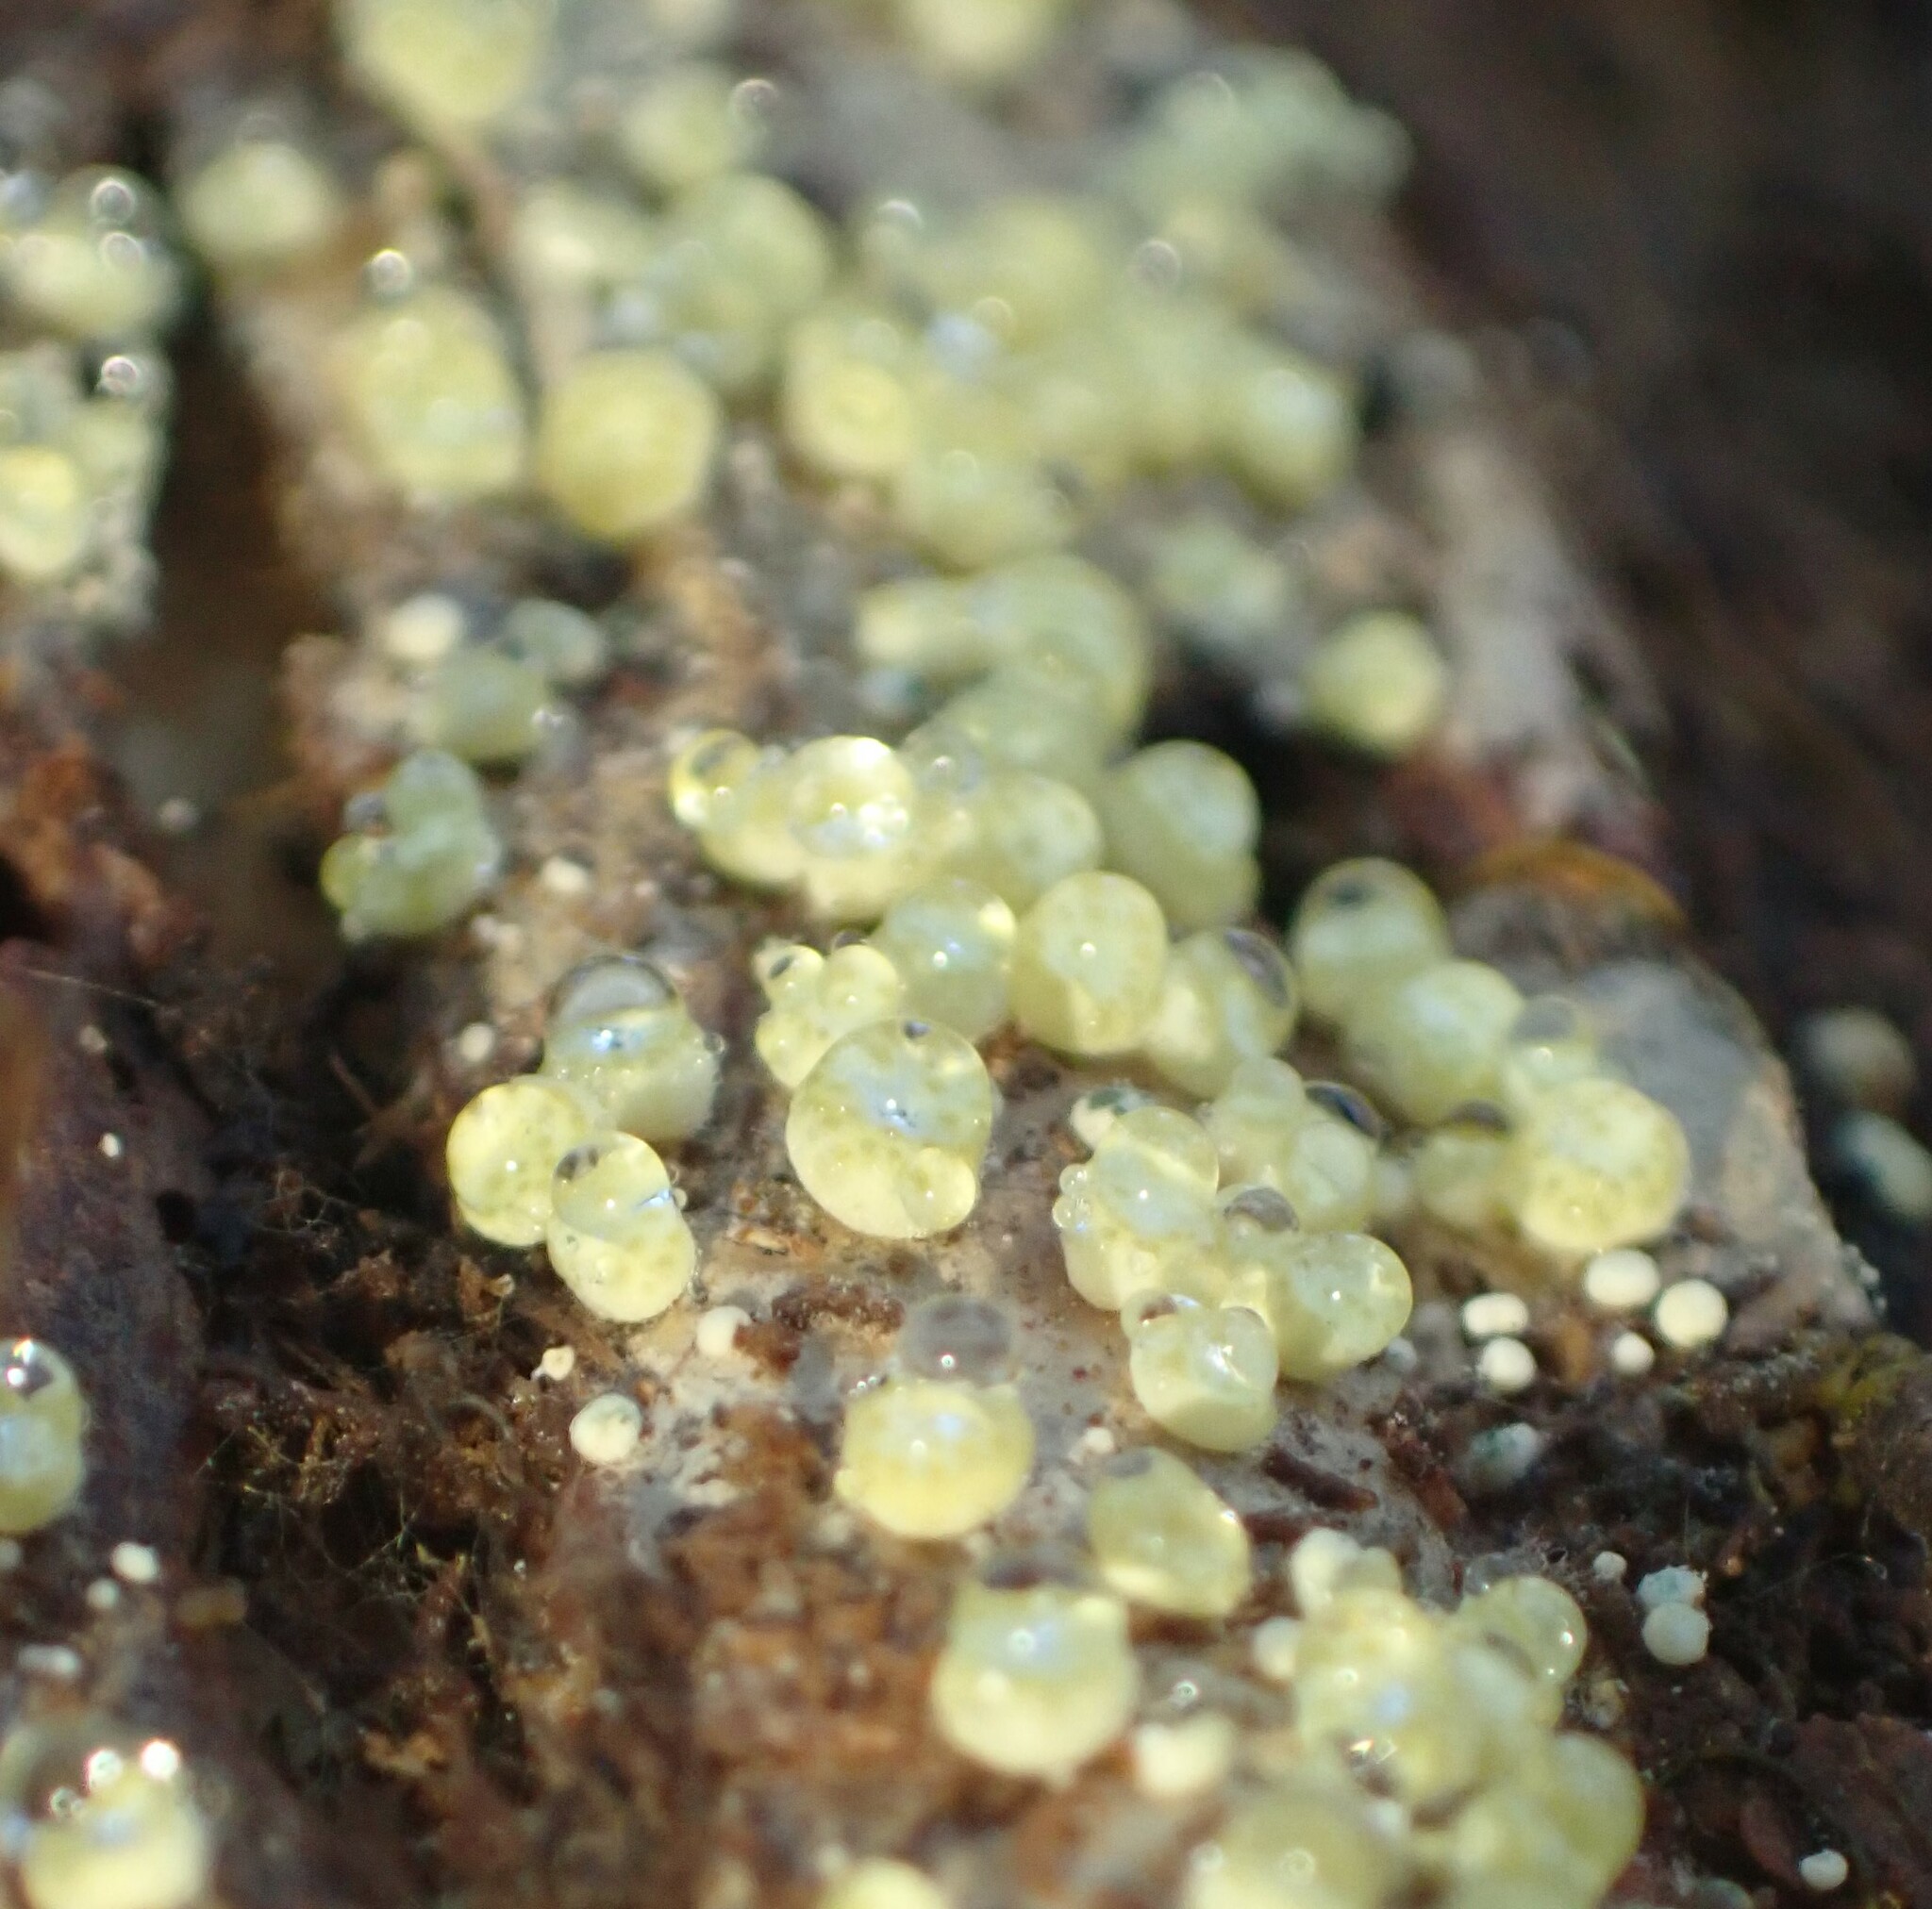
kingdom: Fungi
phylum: Ascomycota
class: Sordariomycetes
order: Hypocreales
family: Hypocreaceae
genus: Trichoderma
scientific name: Trichoderma gelatinosum
